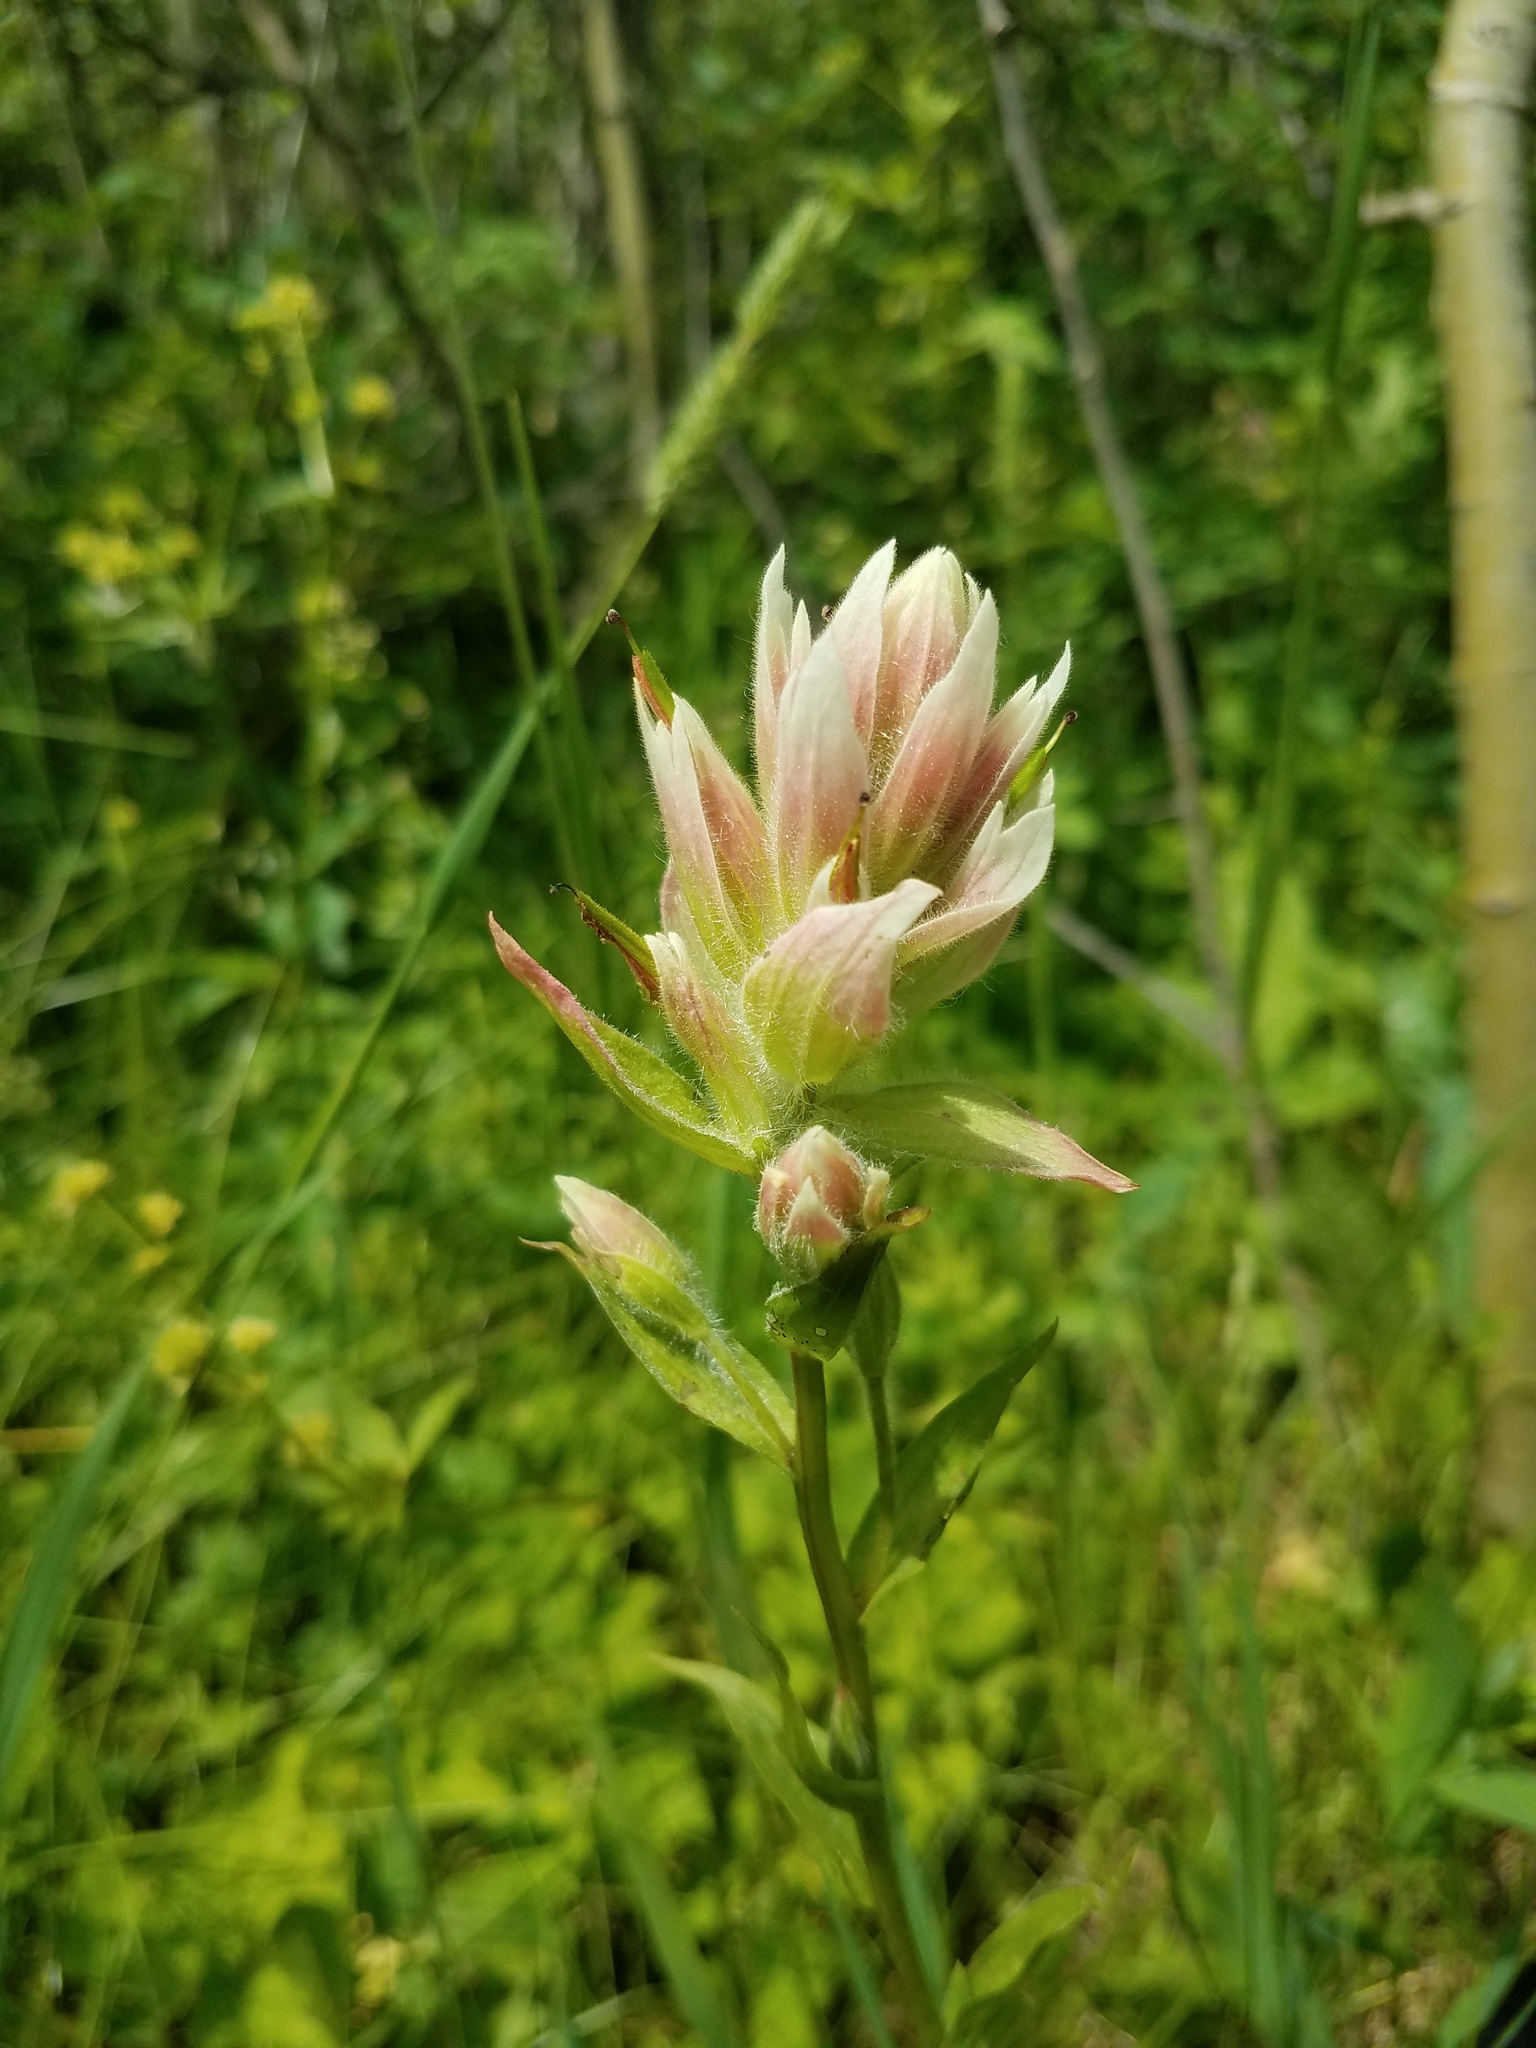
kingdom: Plantae
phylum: Tracheophyta
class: Magnoliopsida
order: Lamiales
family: Orobanchaceae
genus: Castilleja
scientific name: Castilleja septentrionalis
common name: Northeastern paintbrush
